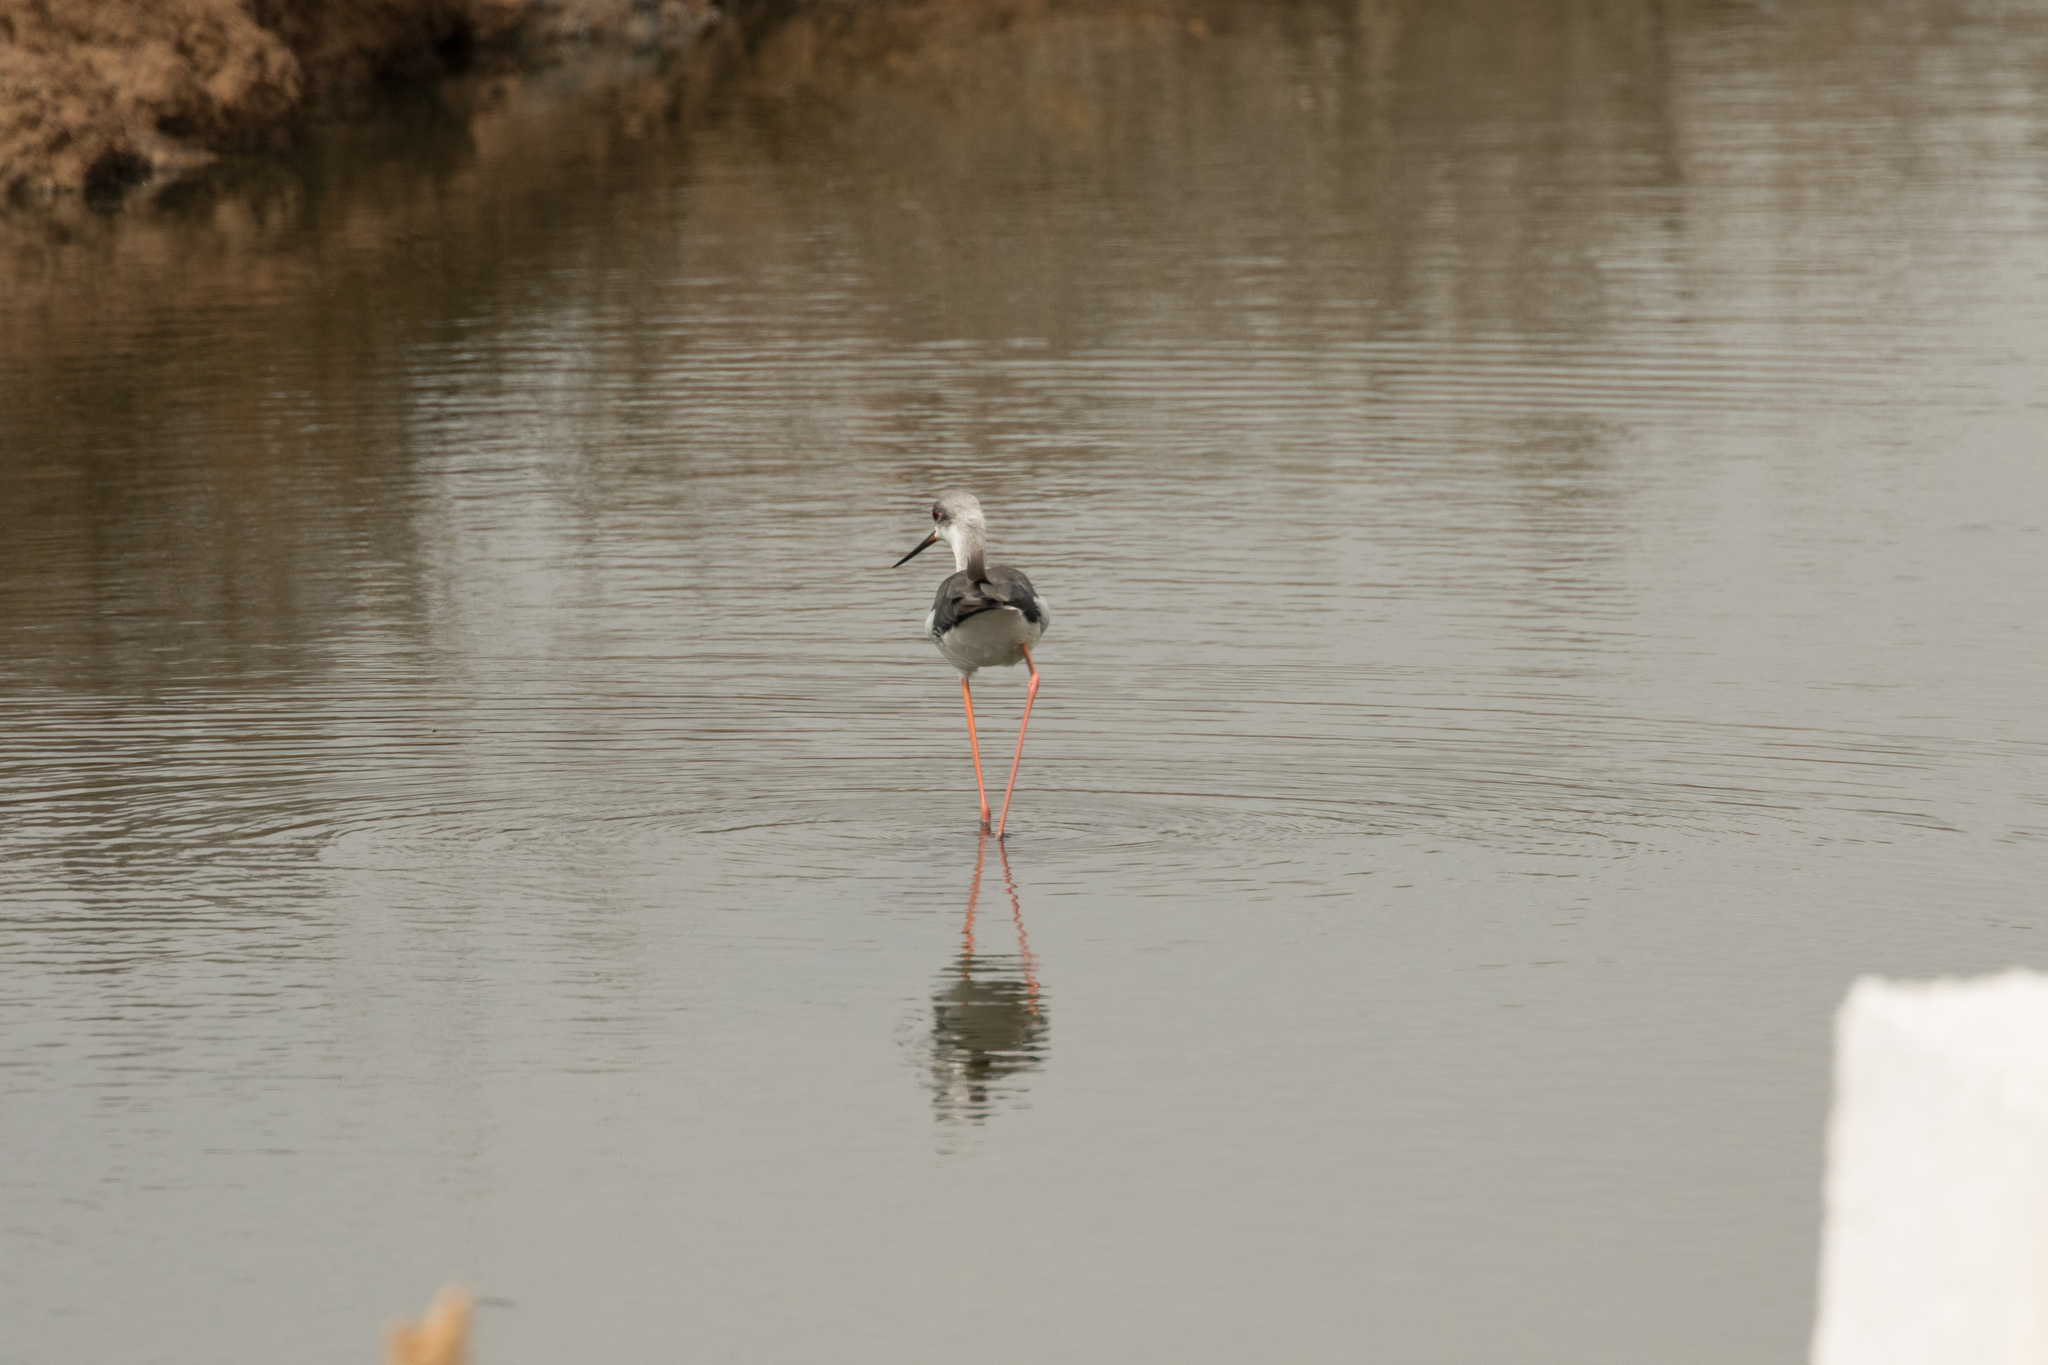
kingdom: Animalia
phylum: Chordata
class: Aves
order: Charadriiformes
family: Recurvirostridae
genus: Himantopus
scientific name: Himantopus himantopus
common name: Black-winged stilt
